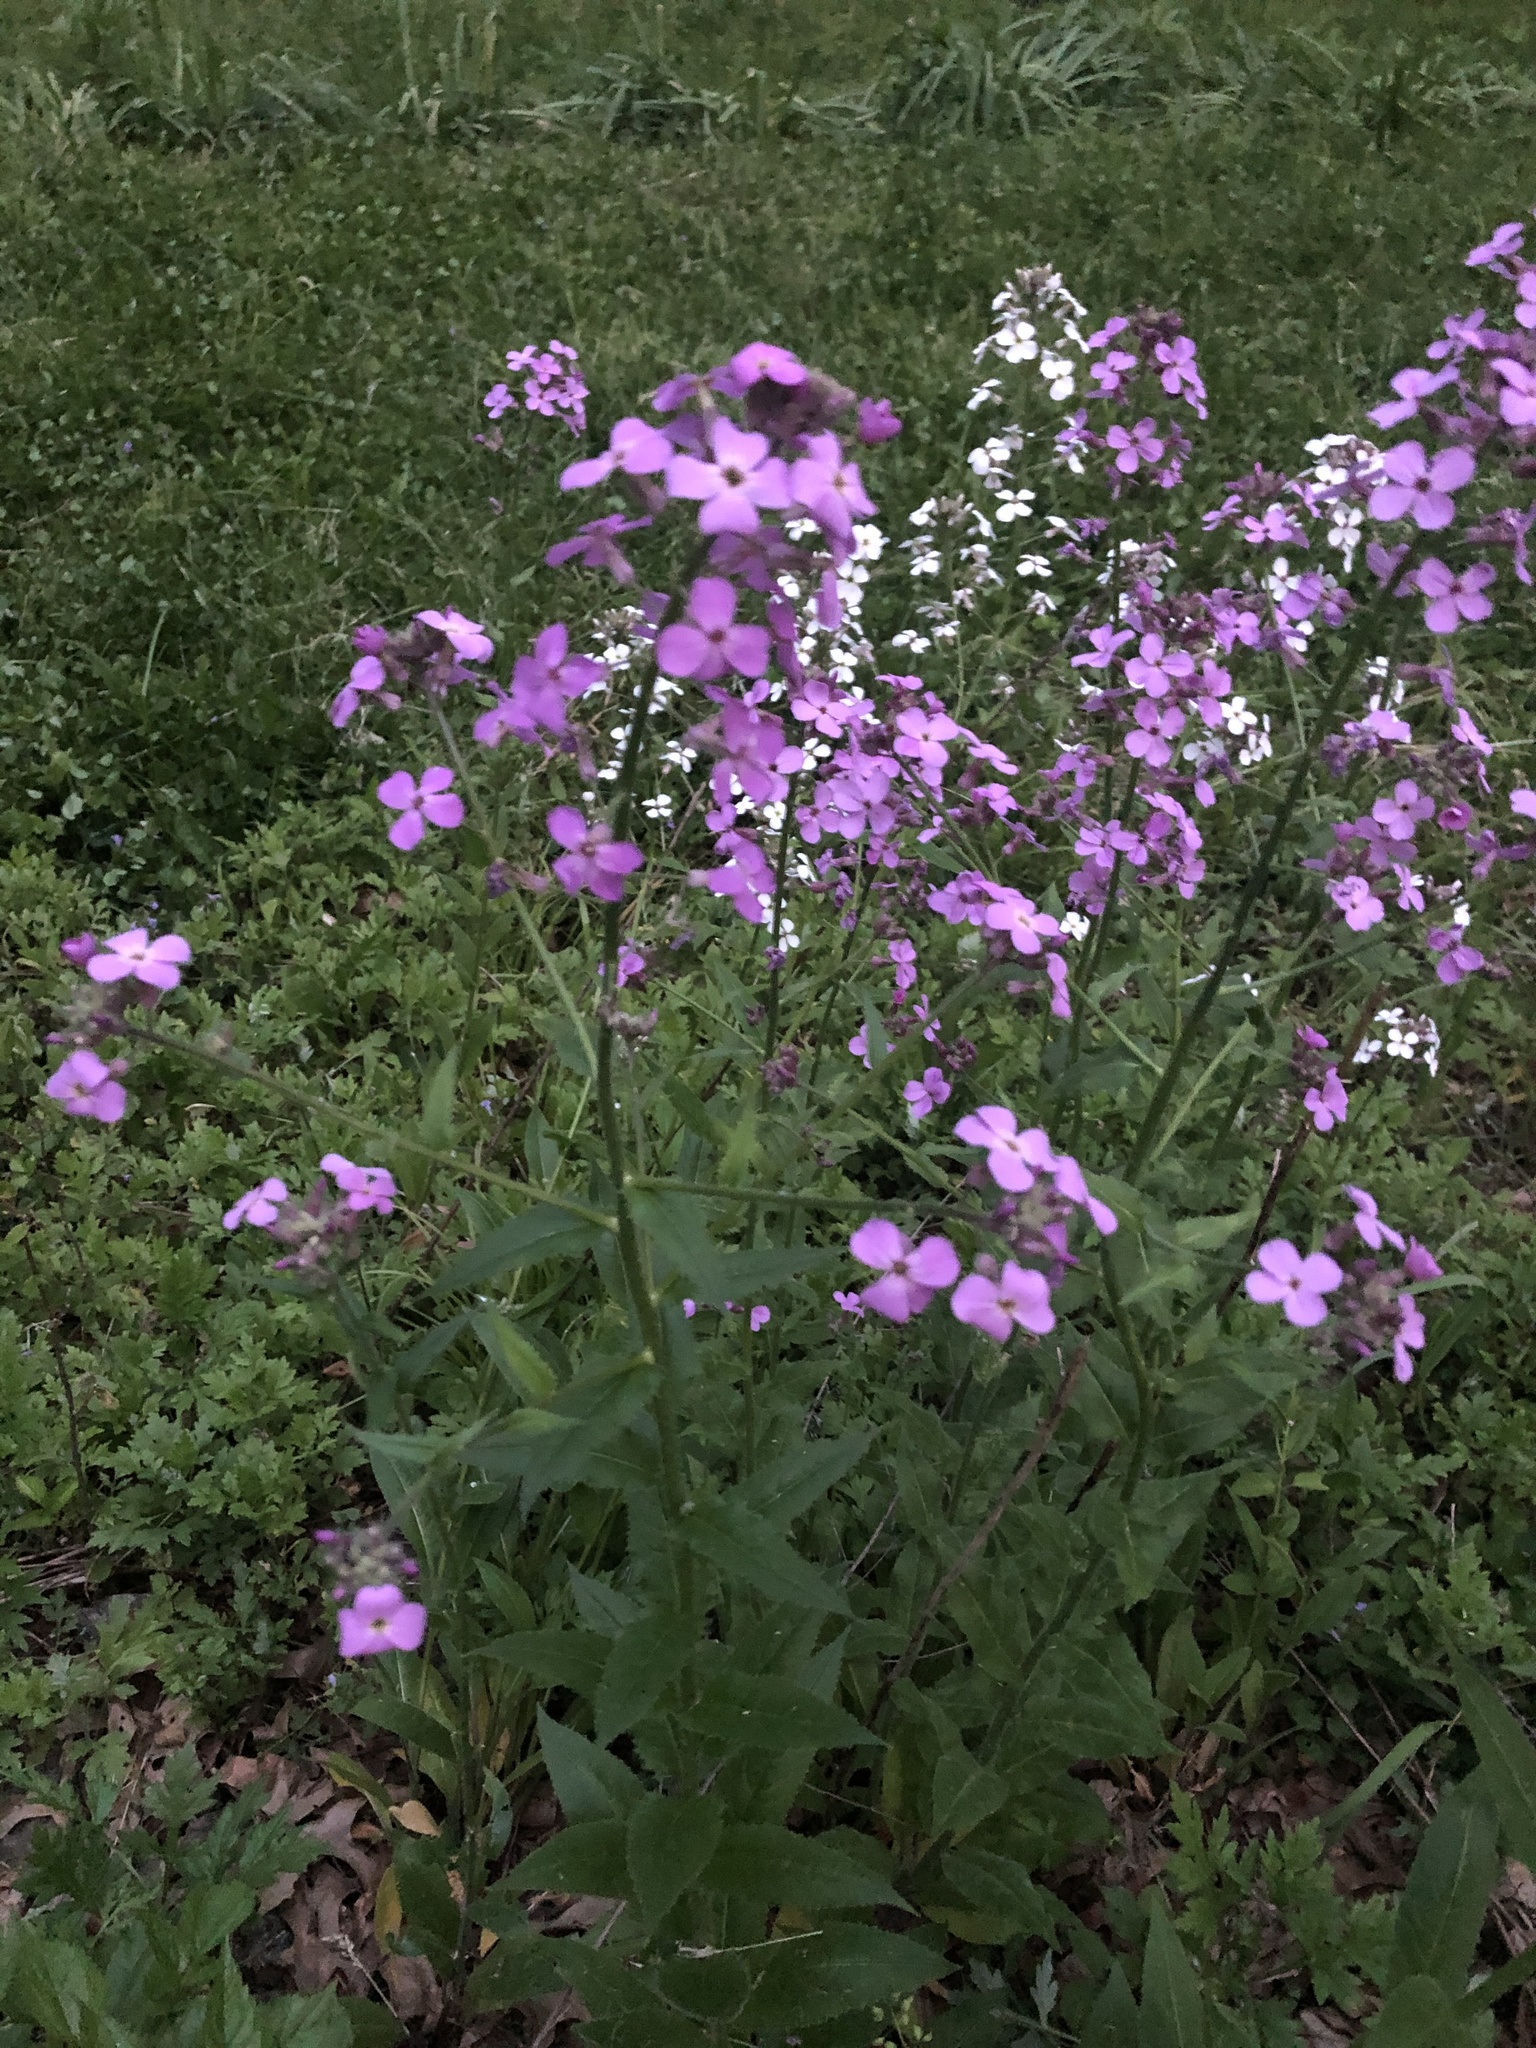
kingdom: Plantae
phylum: Tracheophyta
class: Magnoliopsida
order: Brassicales
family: Brassicaceae
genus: Hesperis
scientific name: Hesperis matronalis
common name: Dame's-violet
